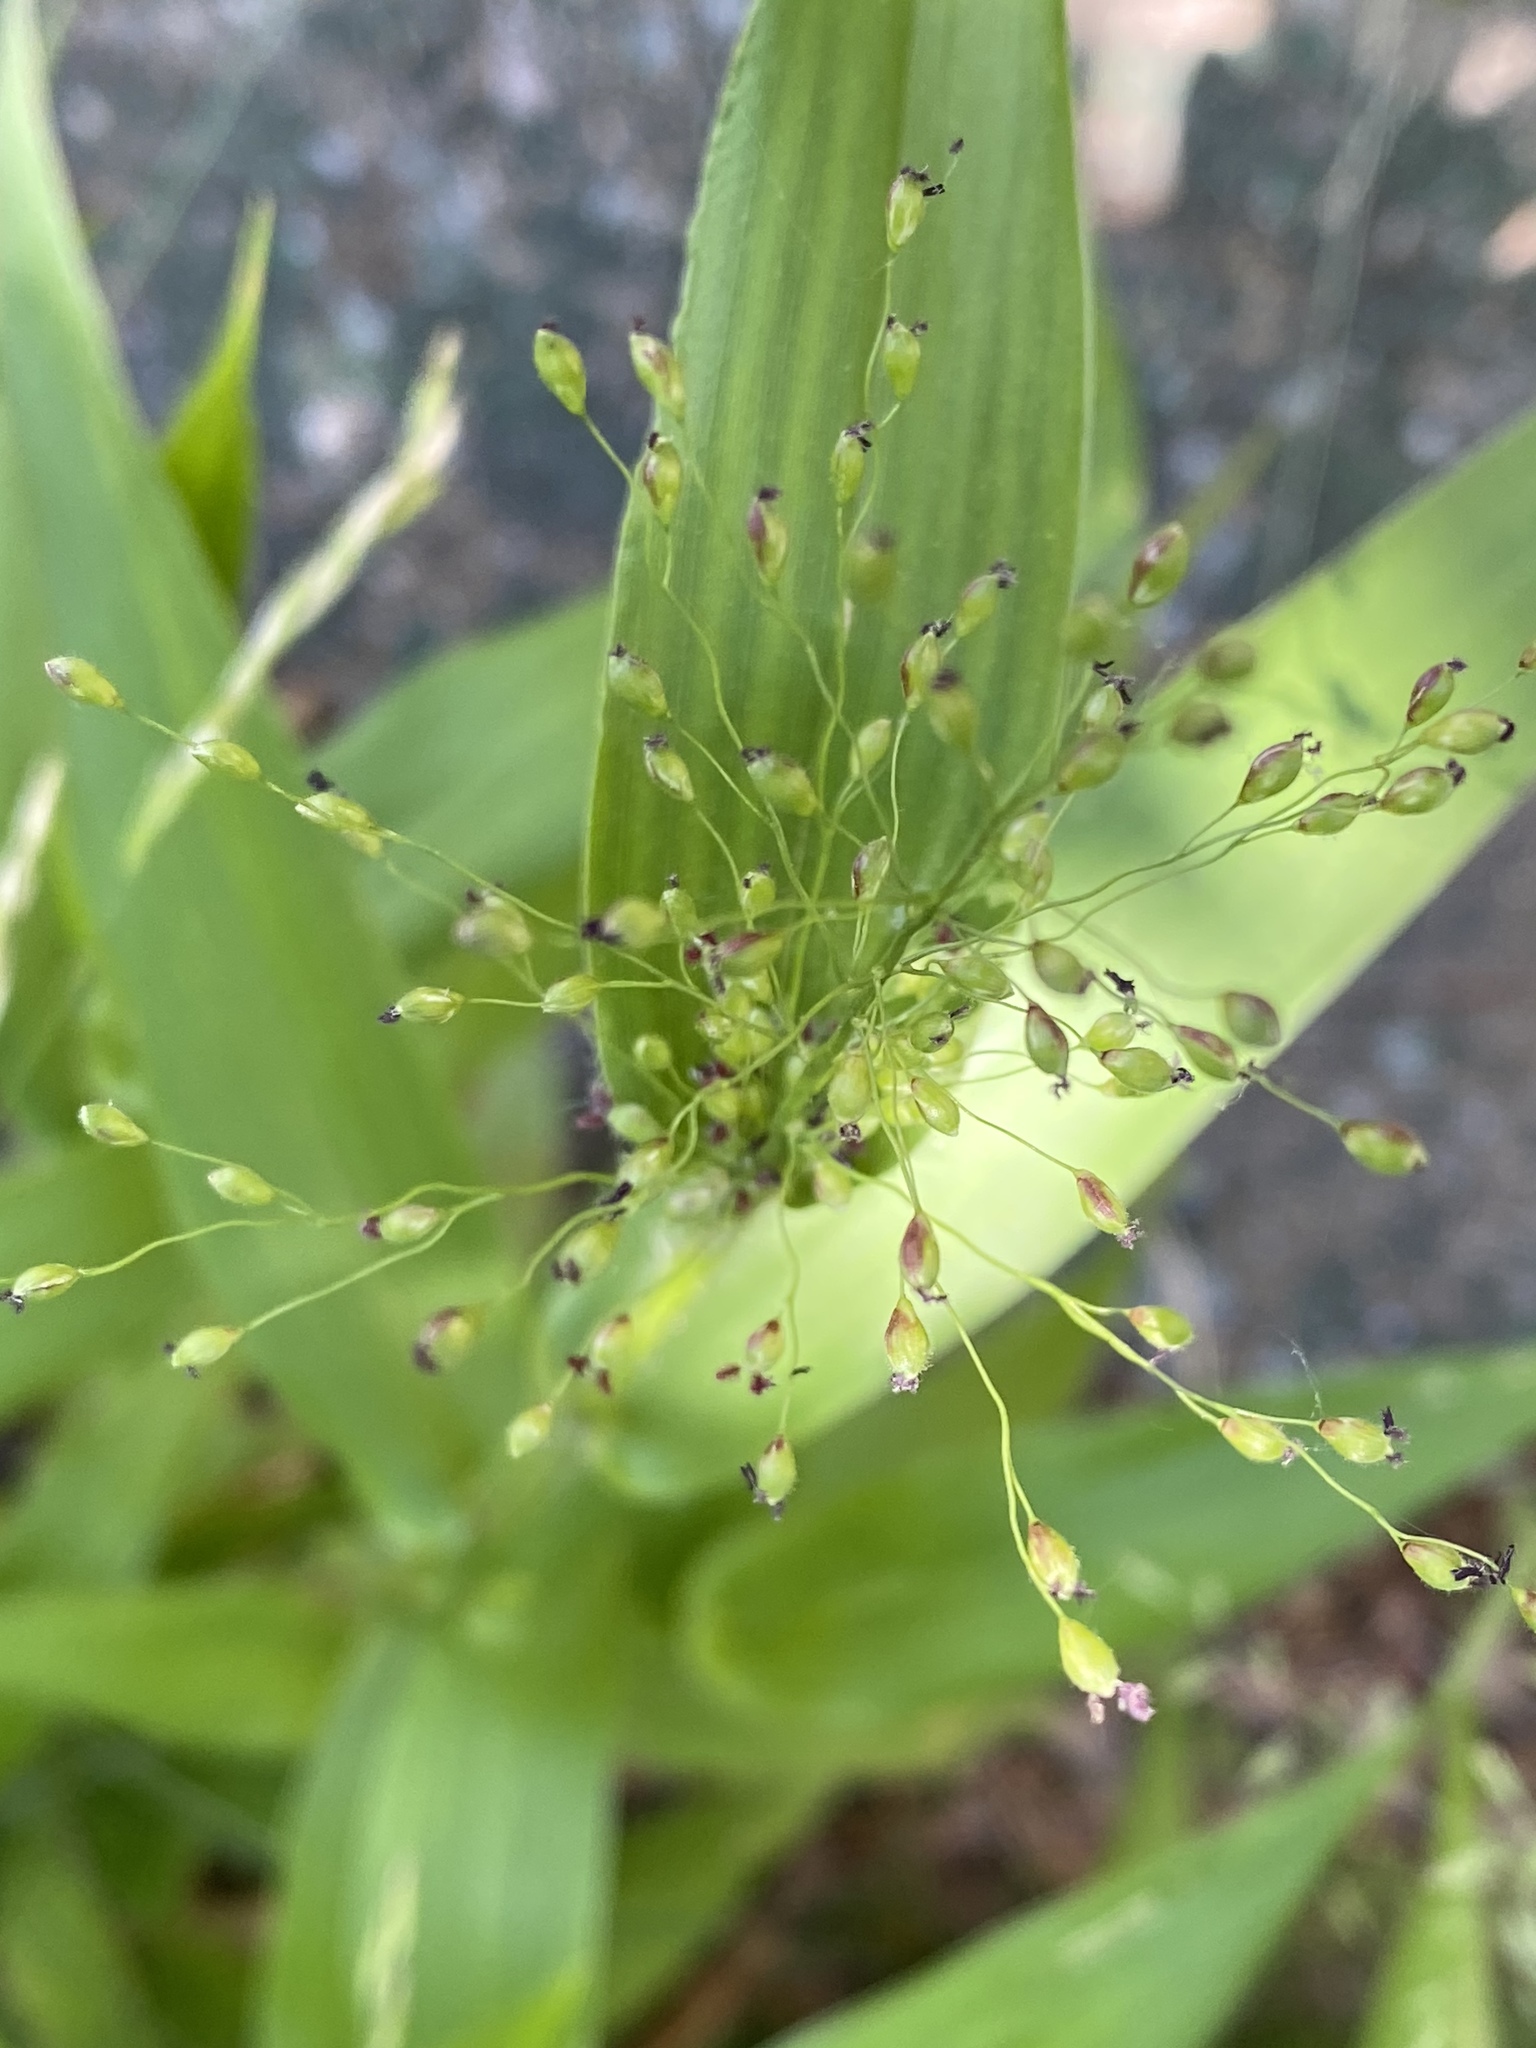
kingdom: Plantae
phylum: Tracheophyta
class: Liliopsida
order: Poales
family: Poaceae
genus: Dichanthelium
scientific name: Dichanthelium clandestinum
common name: Deer-tongue grass
